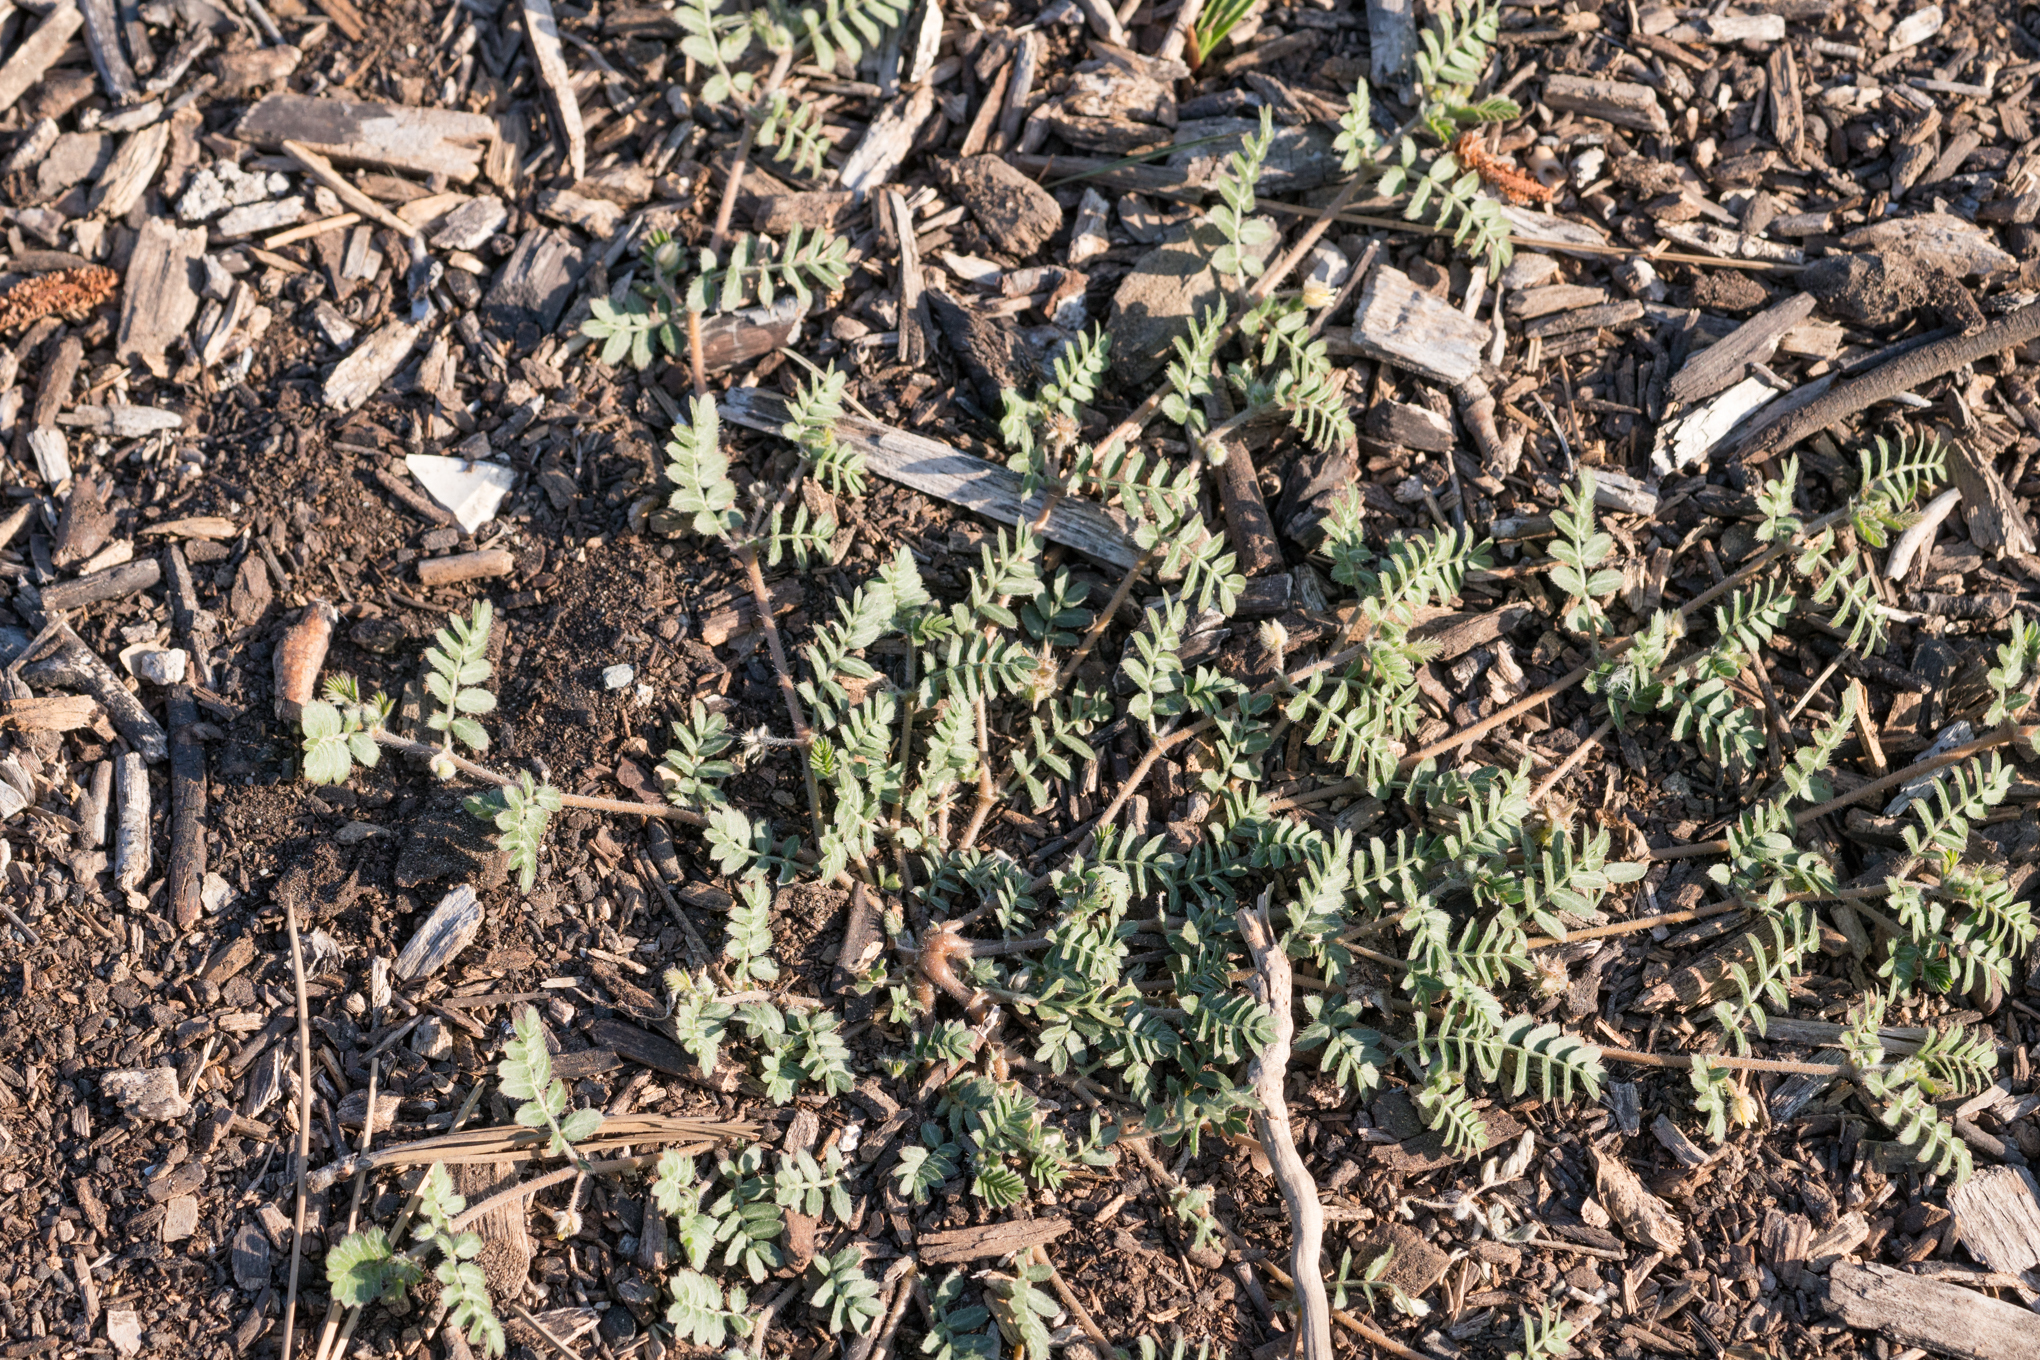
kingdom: Plantae
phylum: Tracheophyta
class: Magnoliopsida
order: Zygophyllales
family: Zygophyllaceae
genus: Tribulus
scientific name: Tribulus terrestris
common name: Puncturevine
